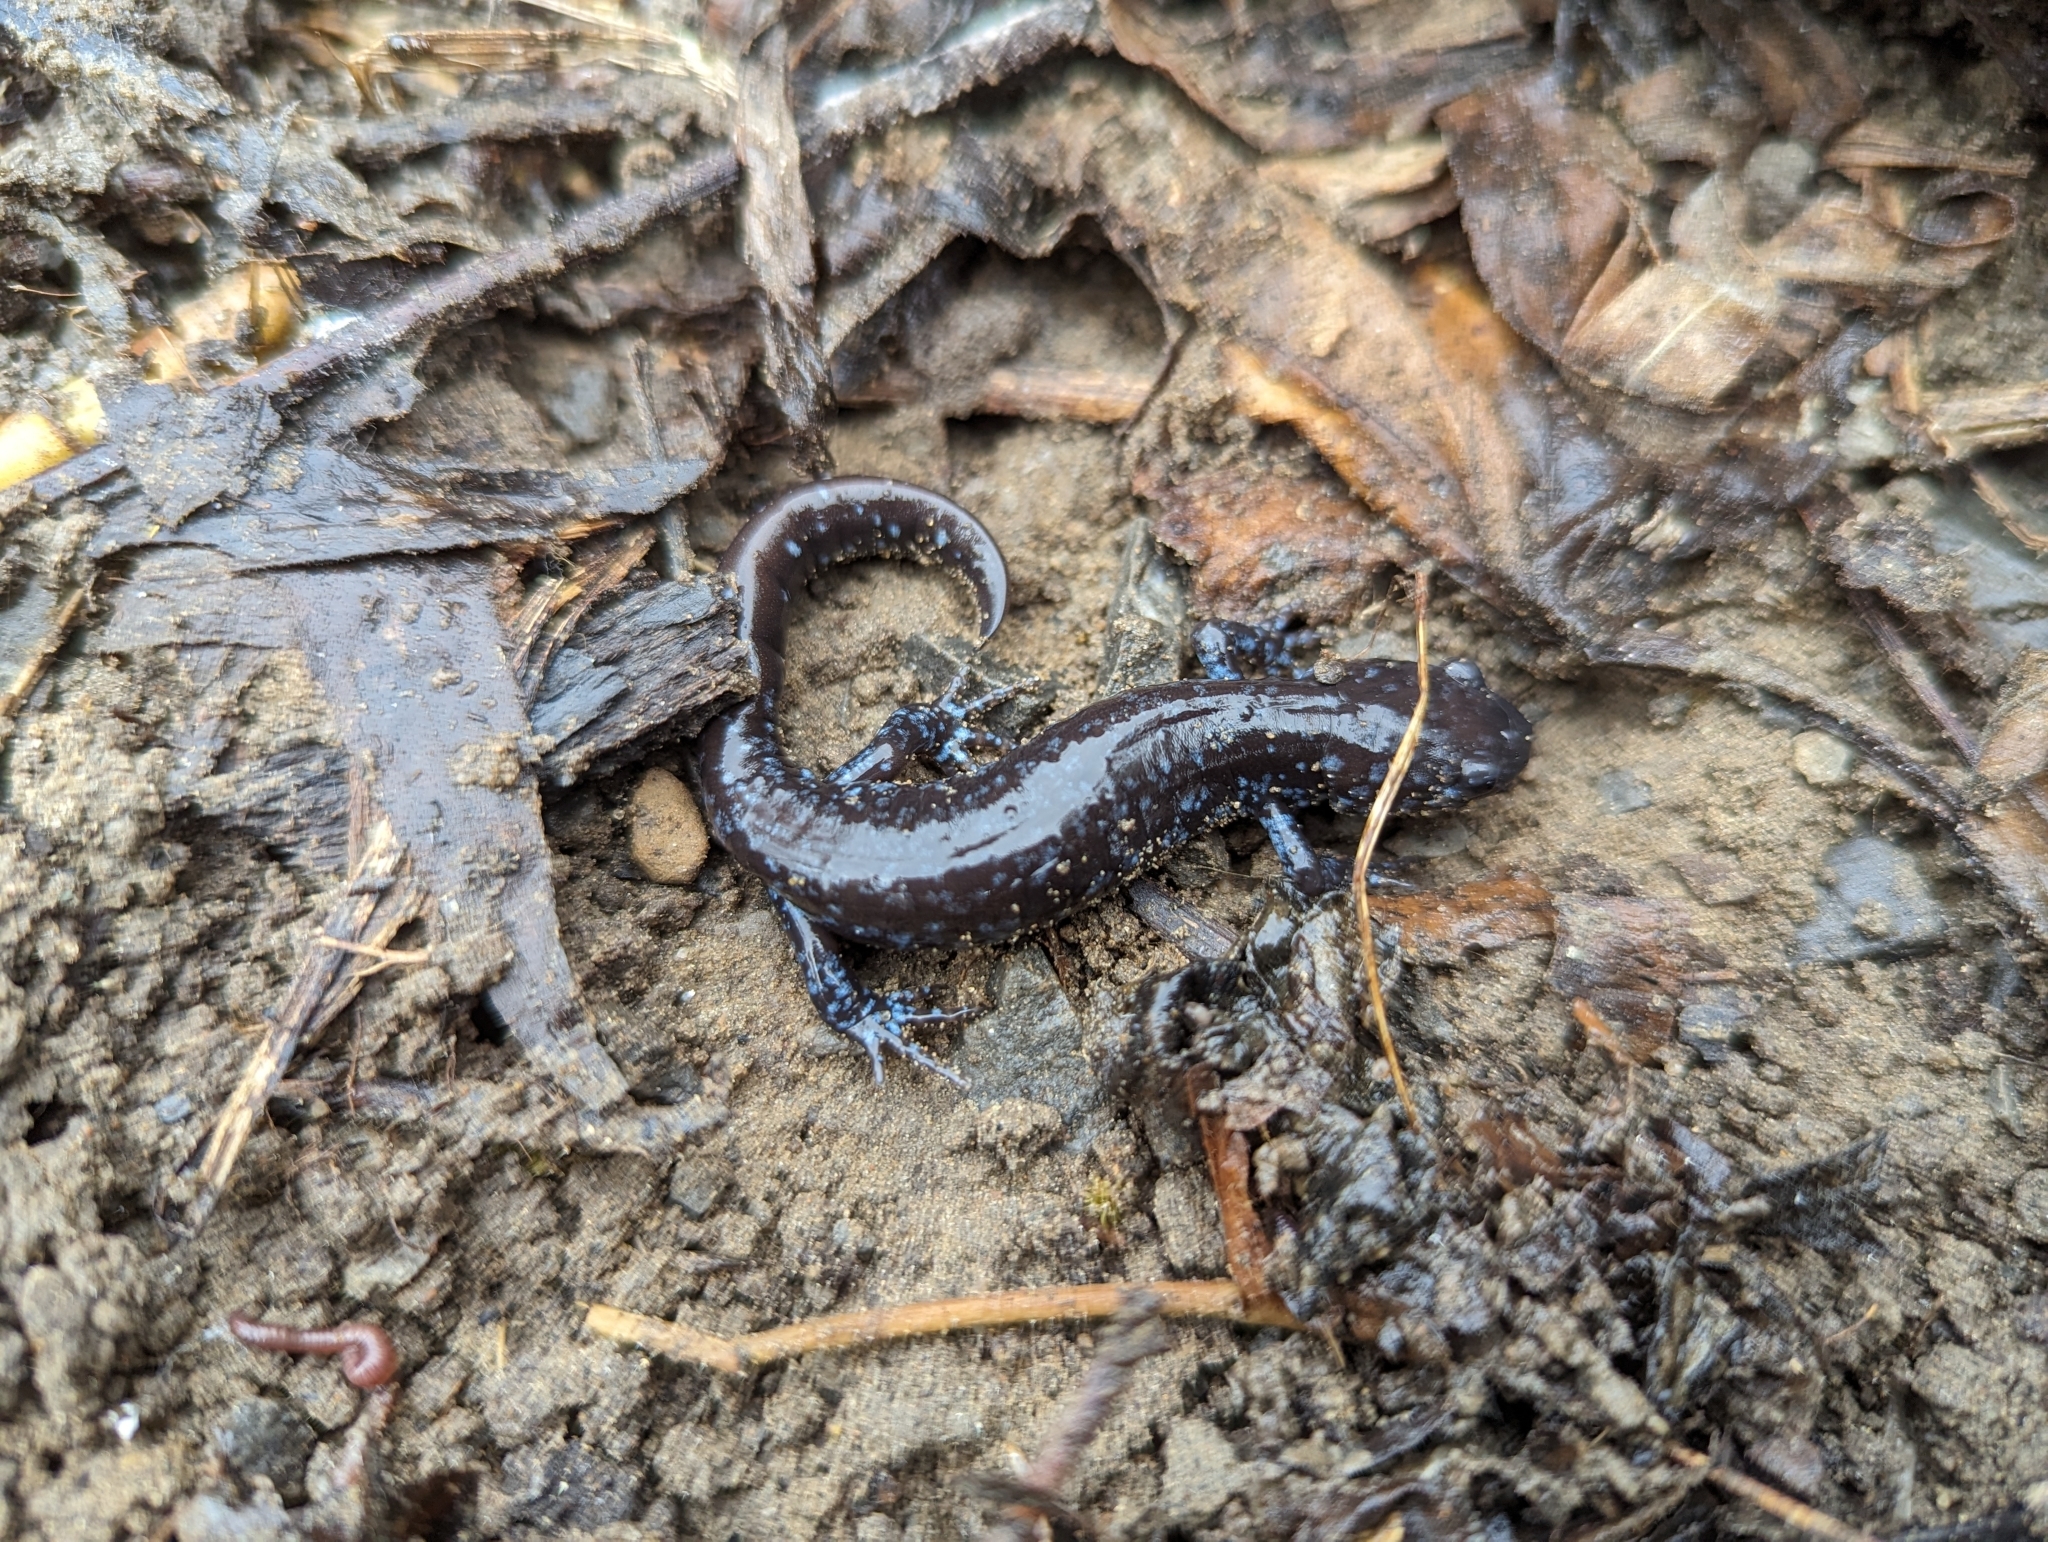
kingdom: Animalia
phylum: Chordata
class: Amphibia
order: Caudata
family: Ambystomatidae
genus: Ambystoma
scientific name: Ambystoma laterale
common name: Blue-spotted salamander
